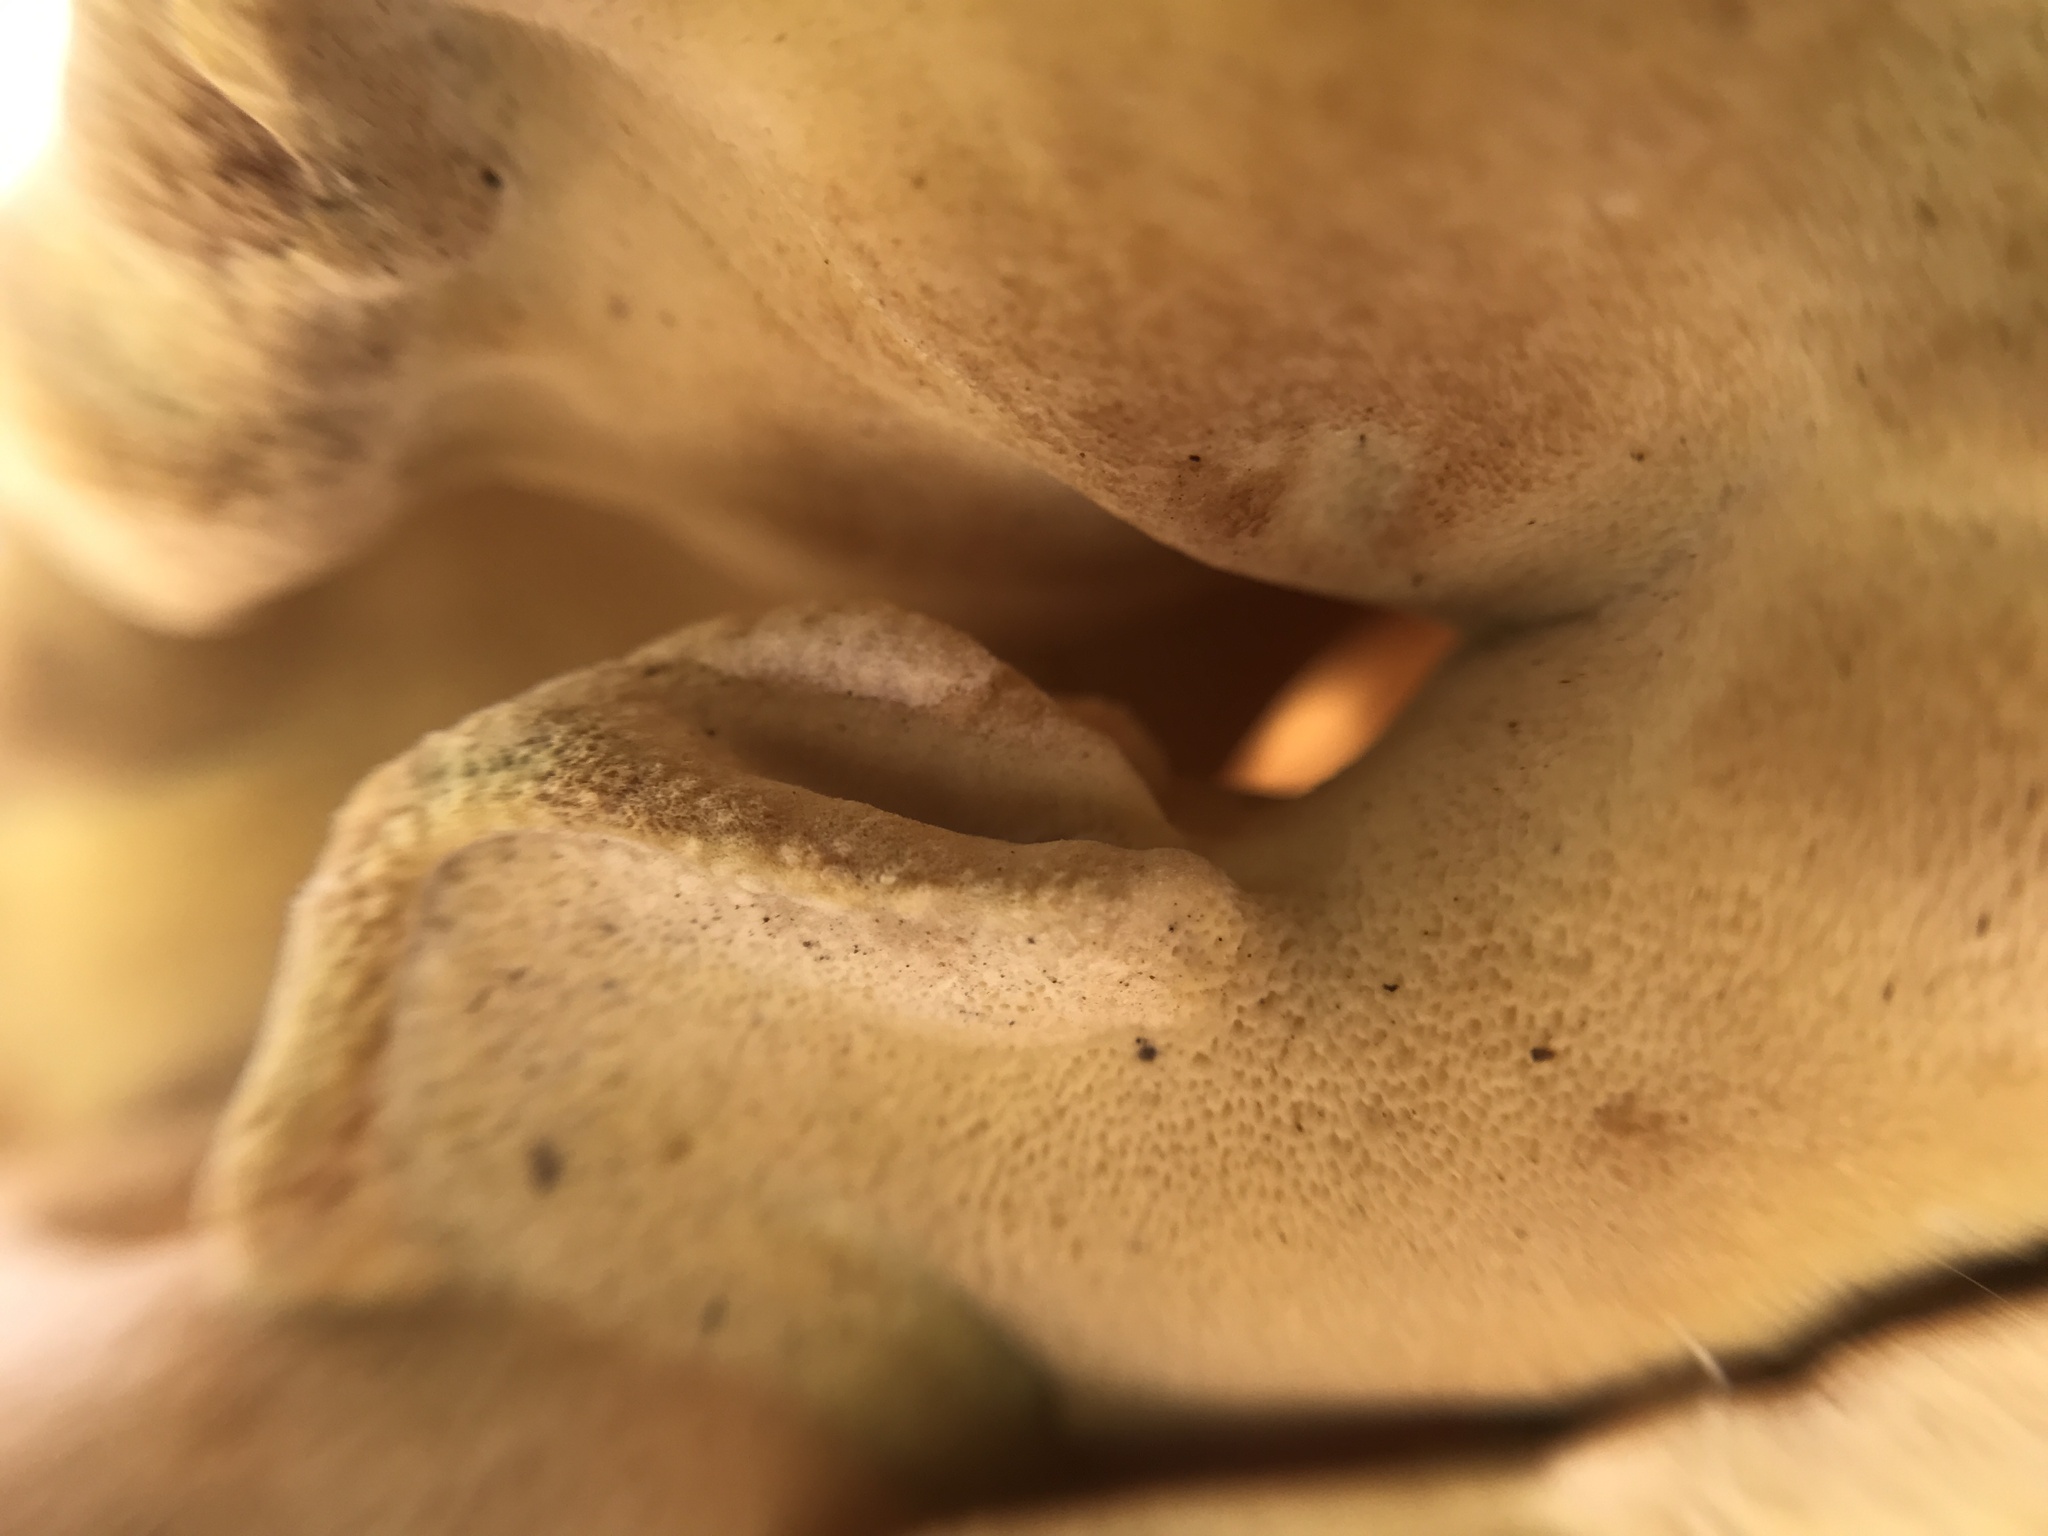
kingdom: Fungi
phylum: Basidiomycota
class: Agaricomycetes
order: Polyporales
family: Laetiporaceae
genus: Laetiporus
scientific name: Laetiporus gilbertsonii
